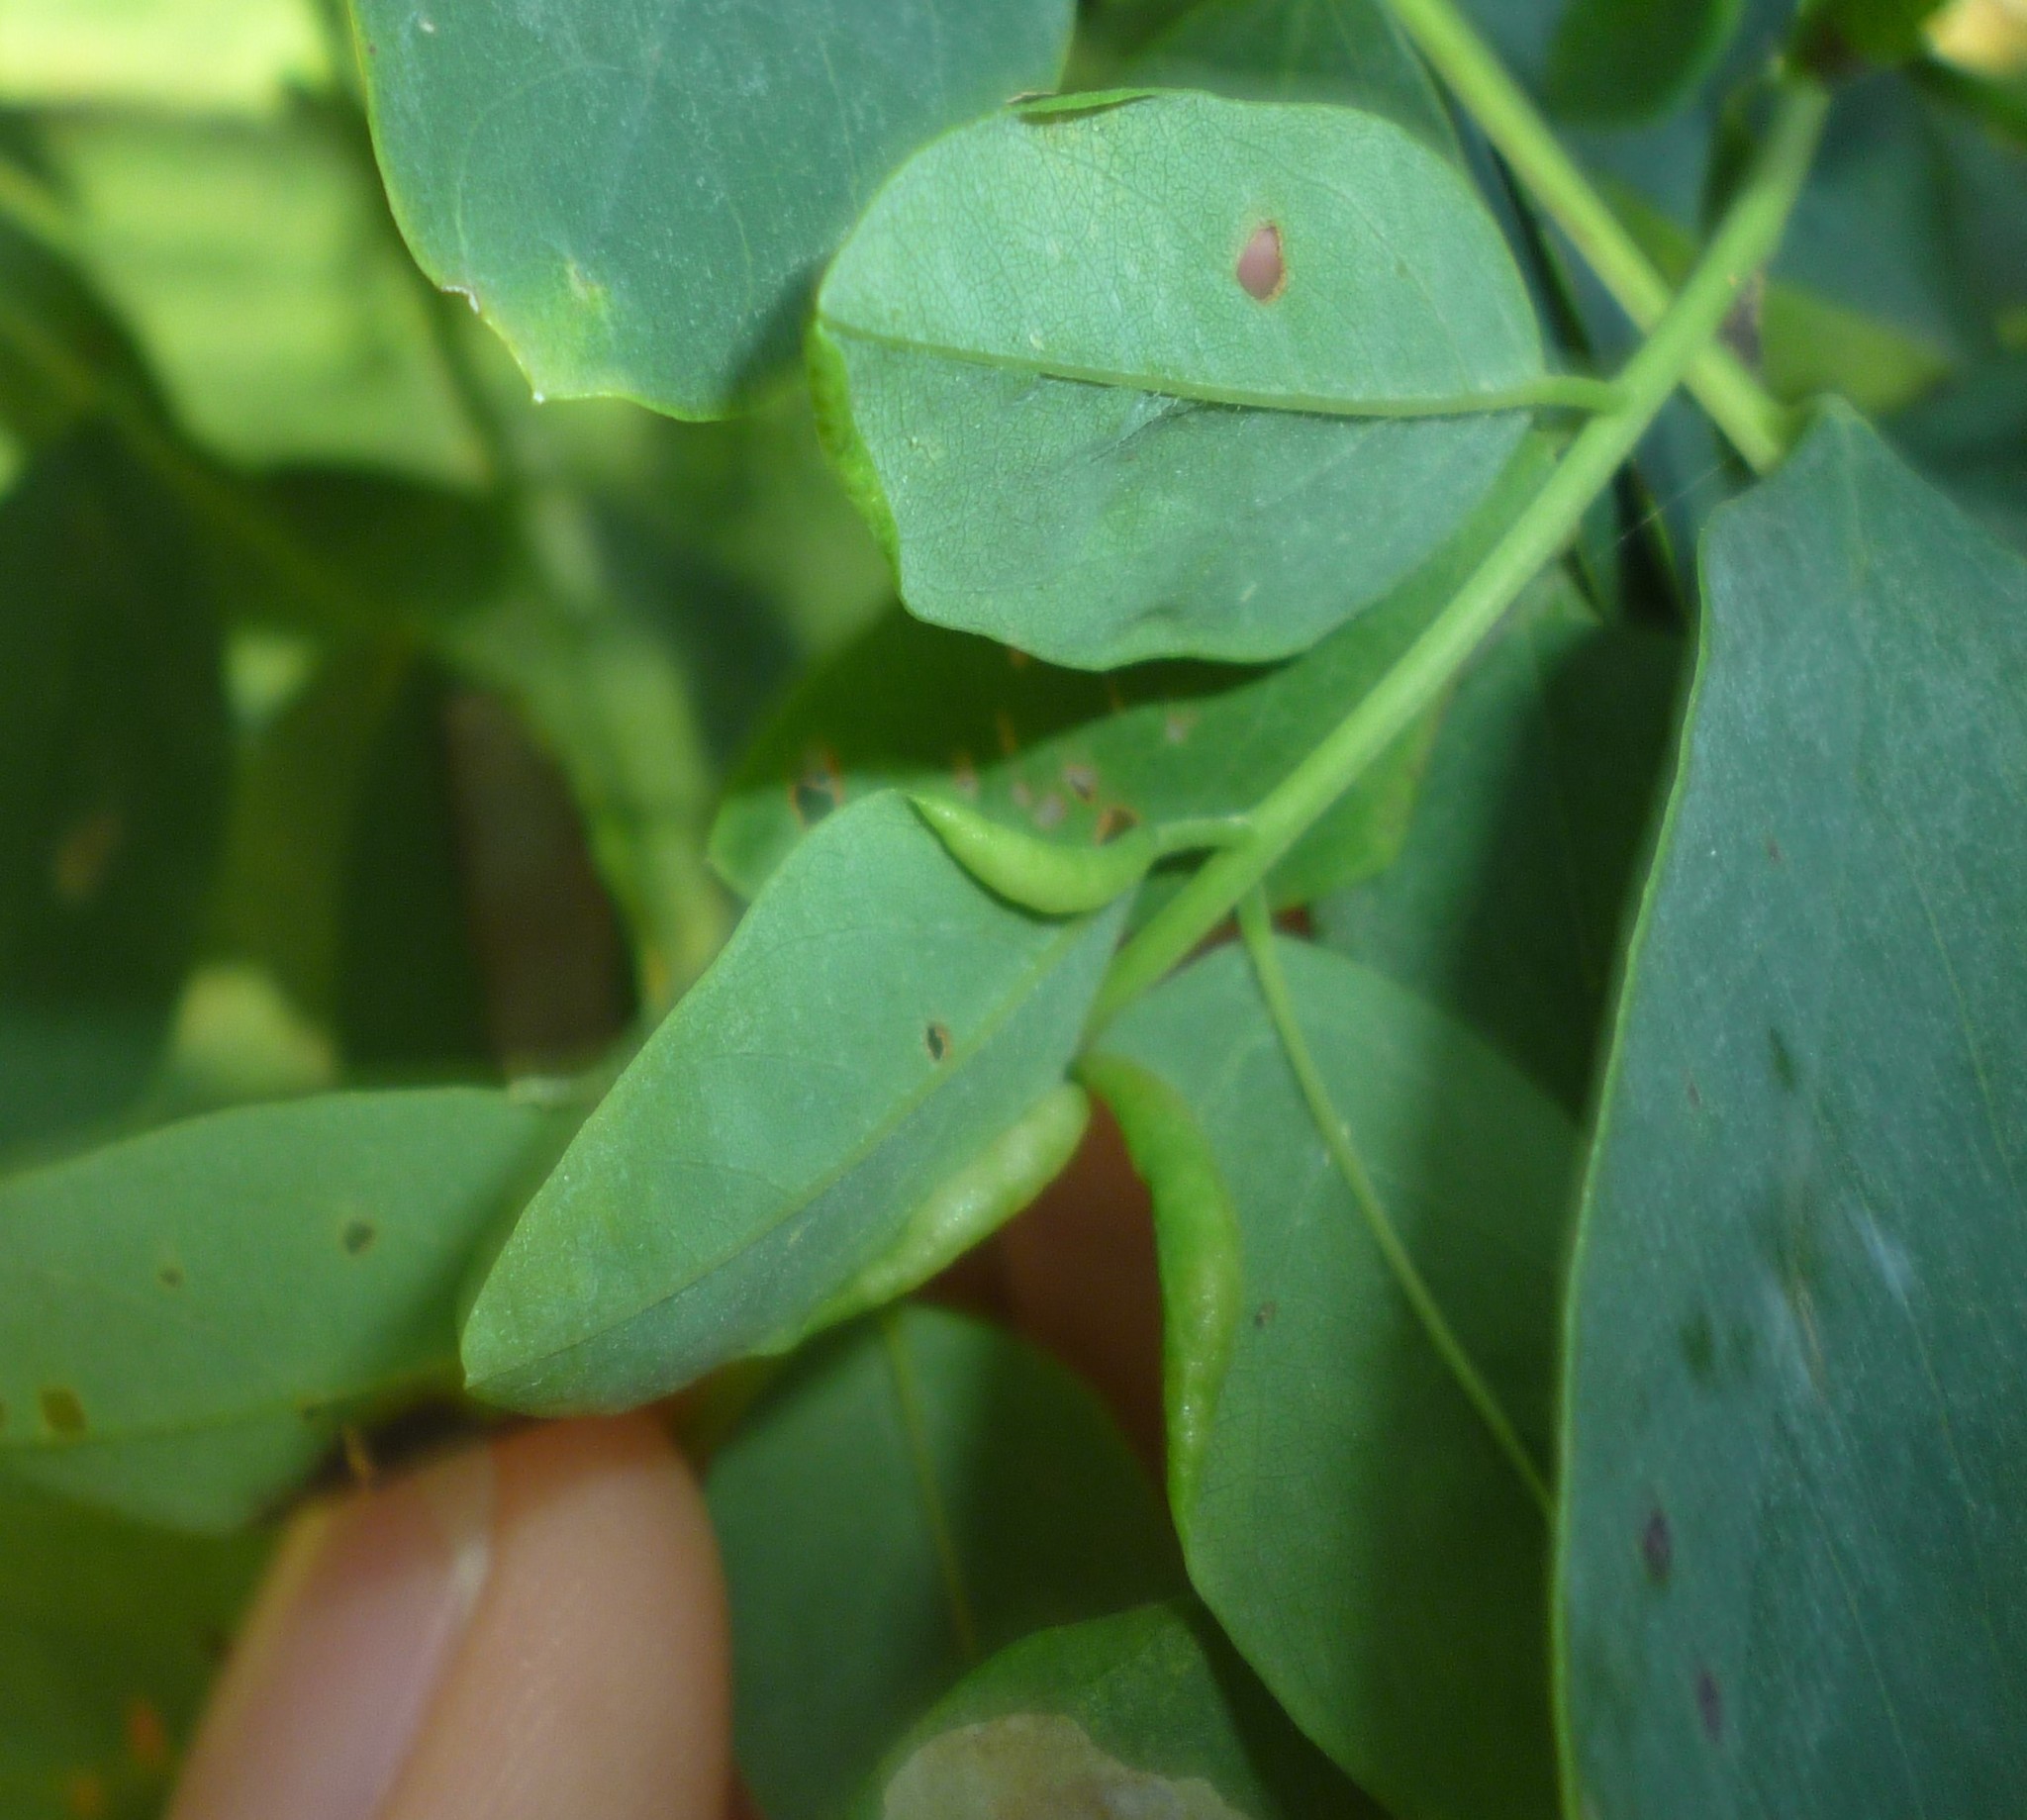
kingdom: Animalia
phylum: Arthropoda
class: Insecta
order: Diptera
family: Cecidomyiidae
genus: Obolodiplosis
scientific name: Obolodiplosis robiniae
